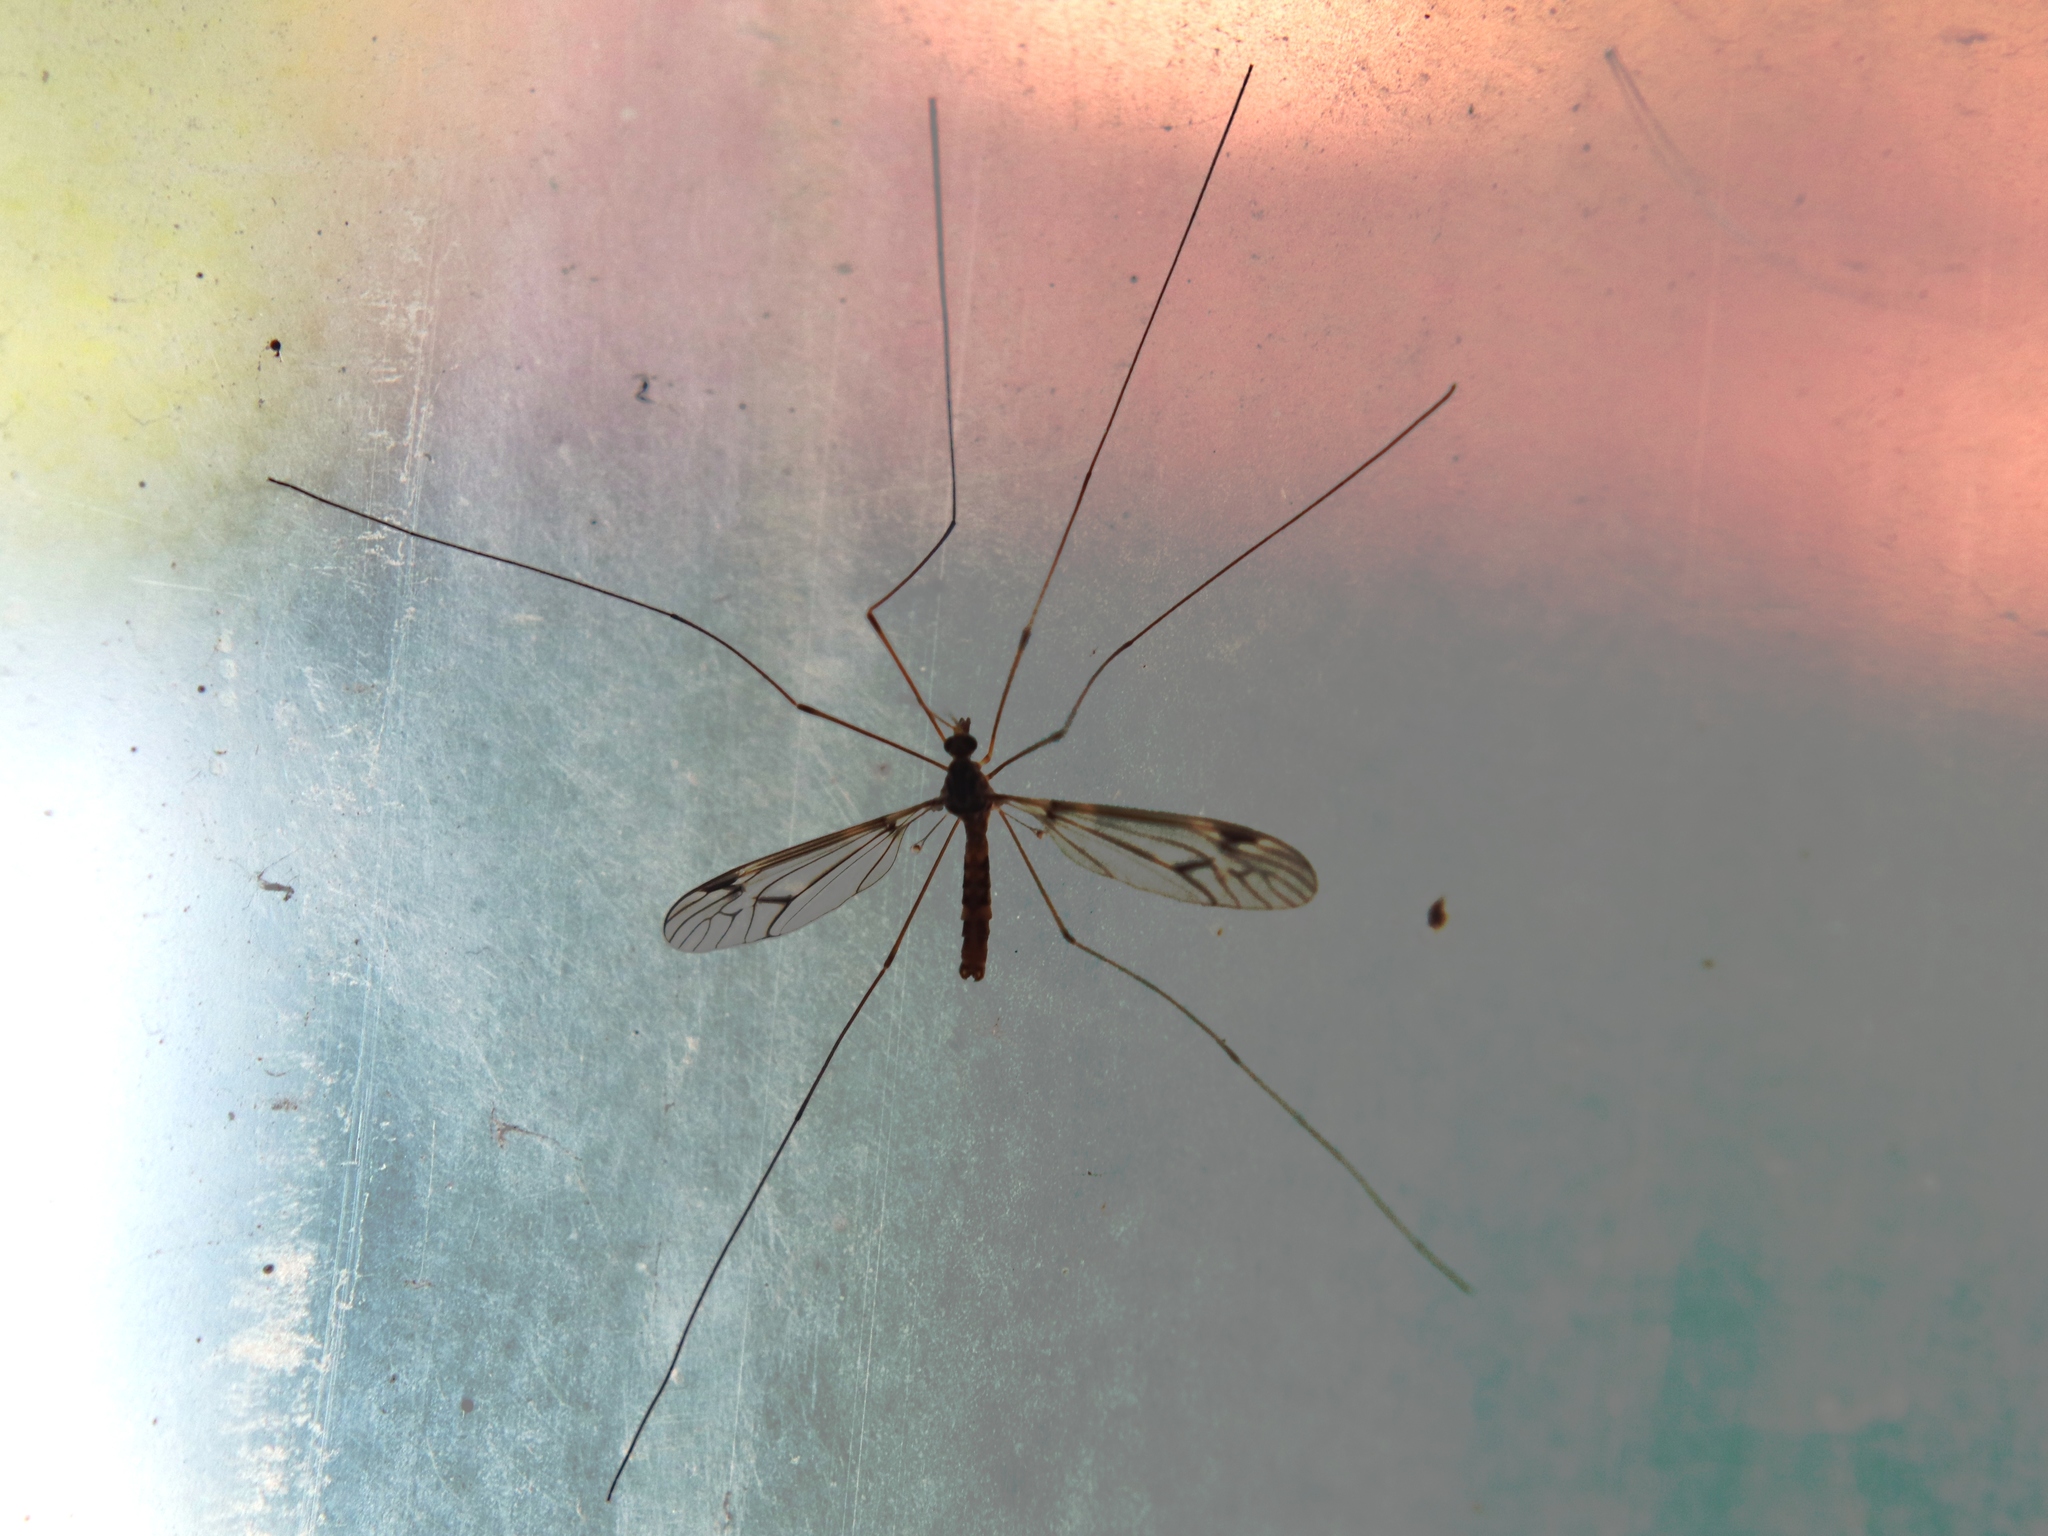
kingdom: Animalia
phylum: Arthropoda
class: Insecta
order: Diptera
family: Tipulidae
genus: Leptotarsus
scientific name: Leptotarsus cubitalis
